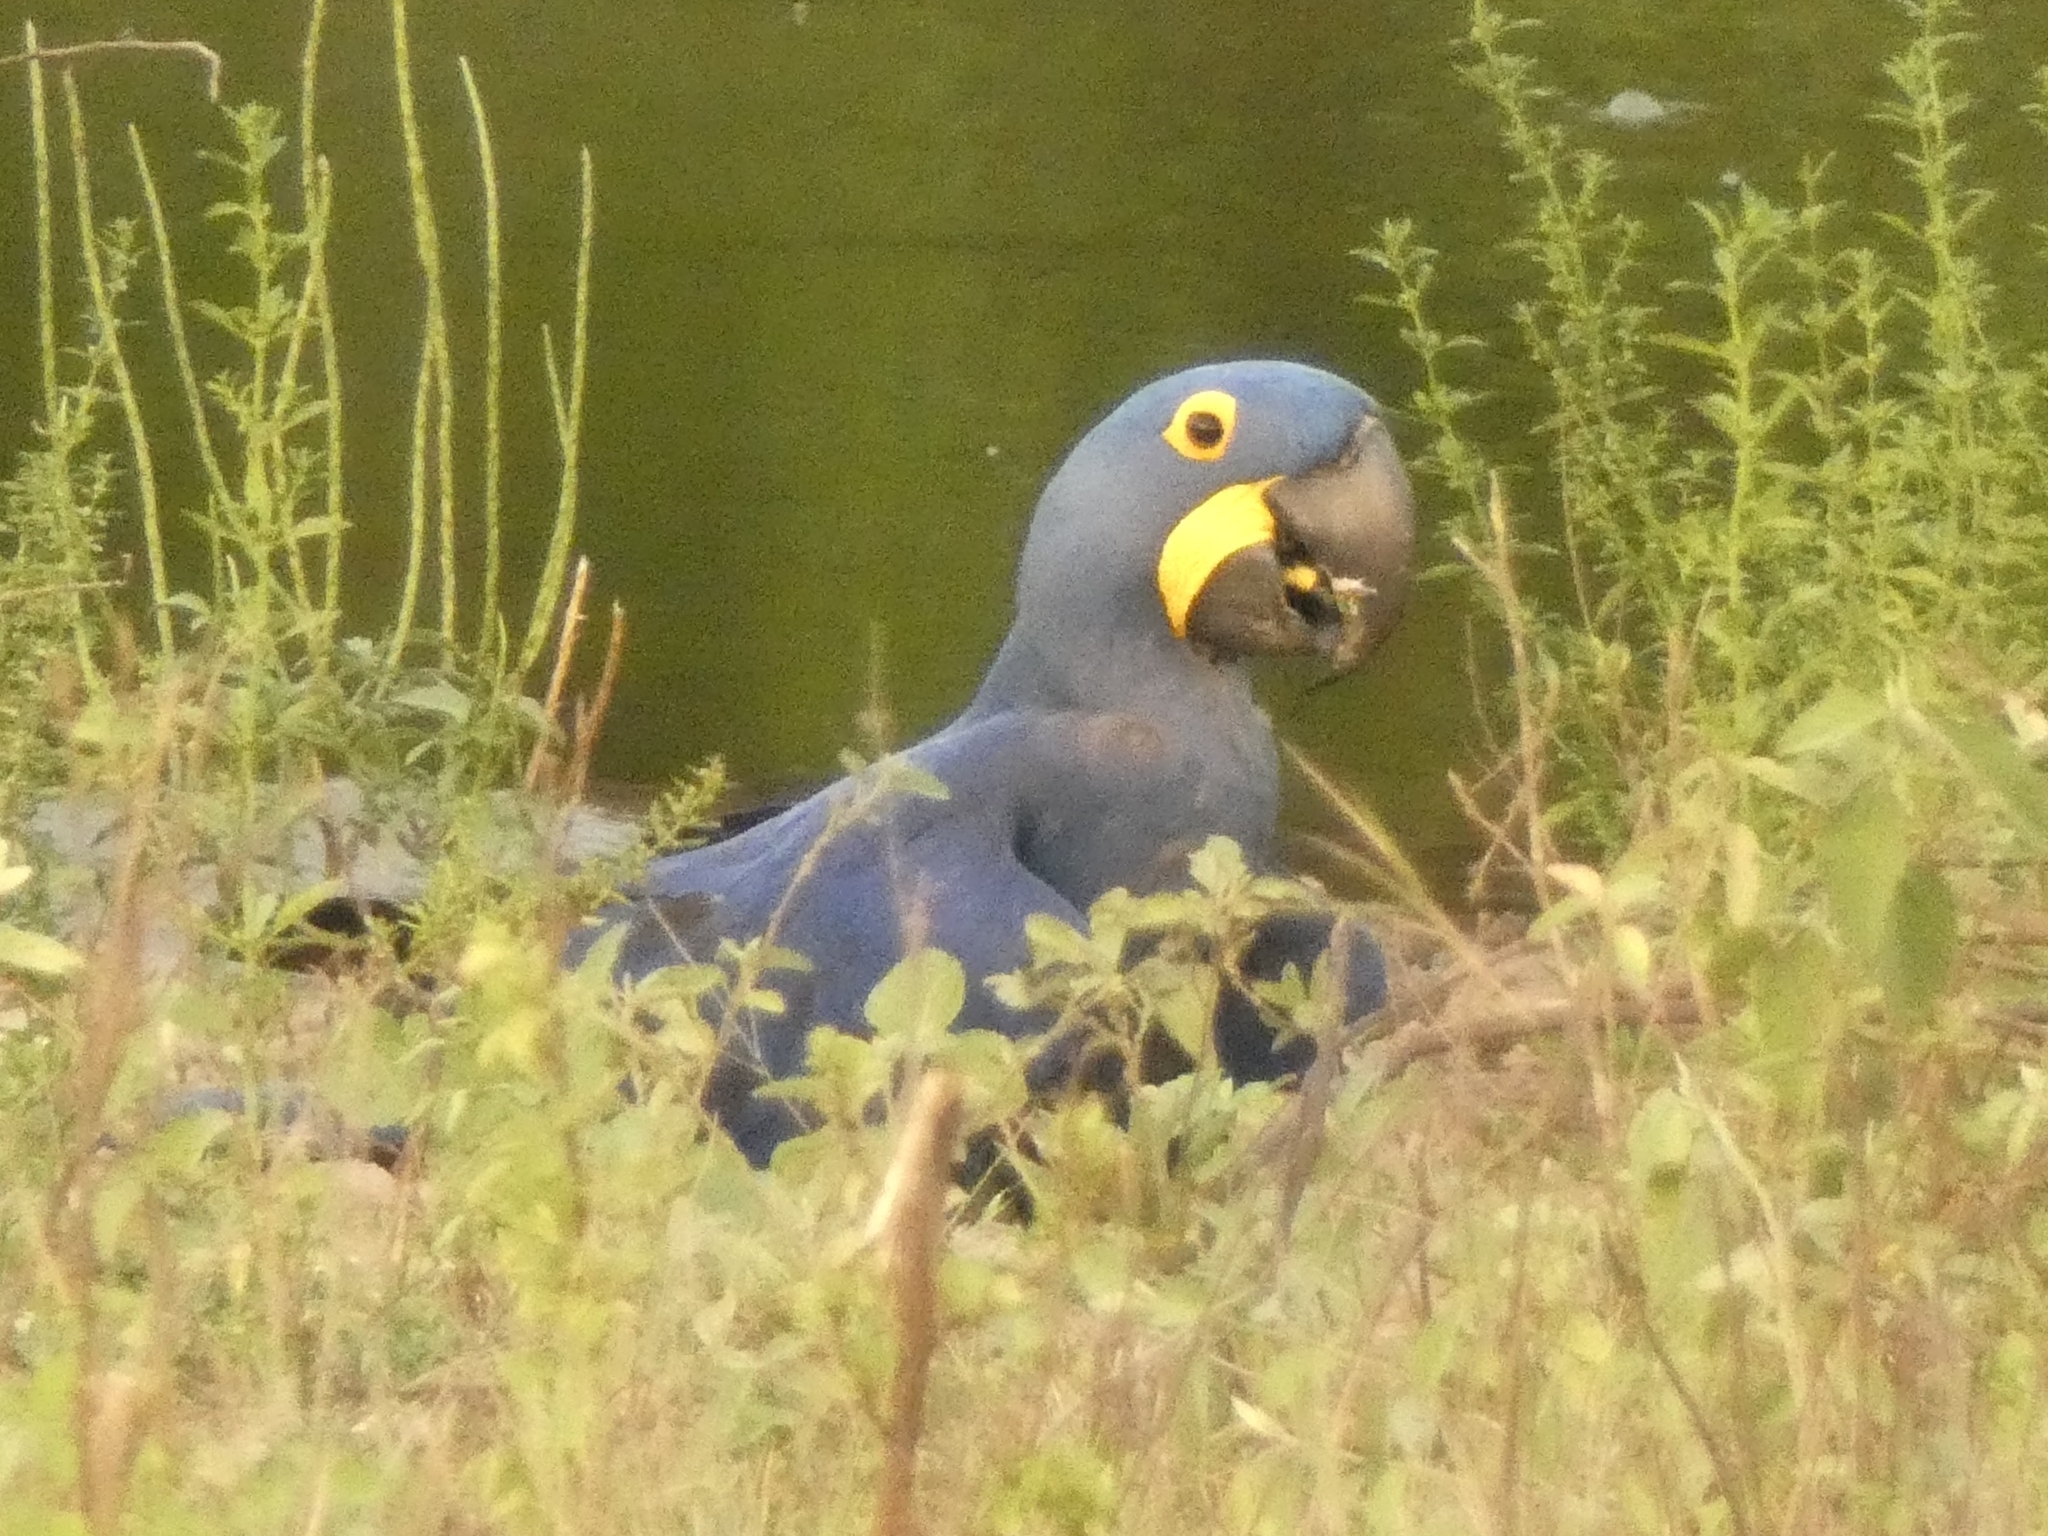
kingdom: Animalia
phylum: Chordata
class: Aves
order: Psittaciformes
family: Psittacidae
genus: Anodorhynchus
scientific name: Anodorhynchus hyacinthinus
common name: Hyacinth macaw
